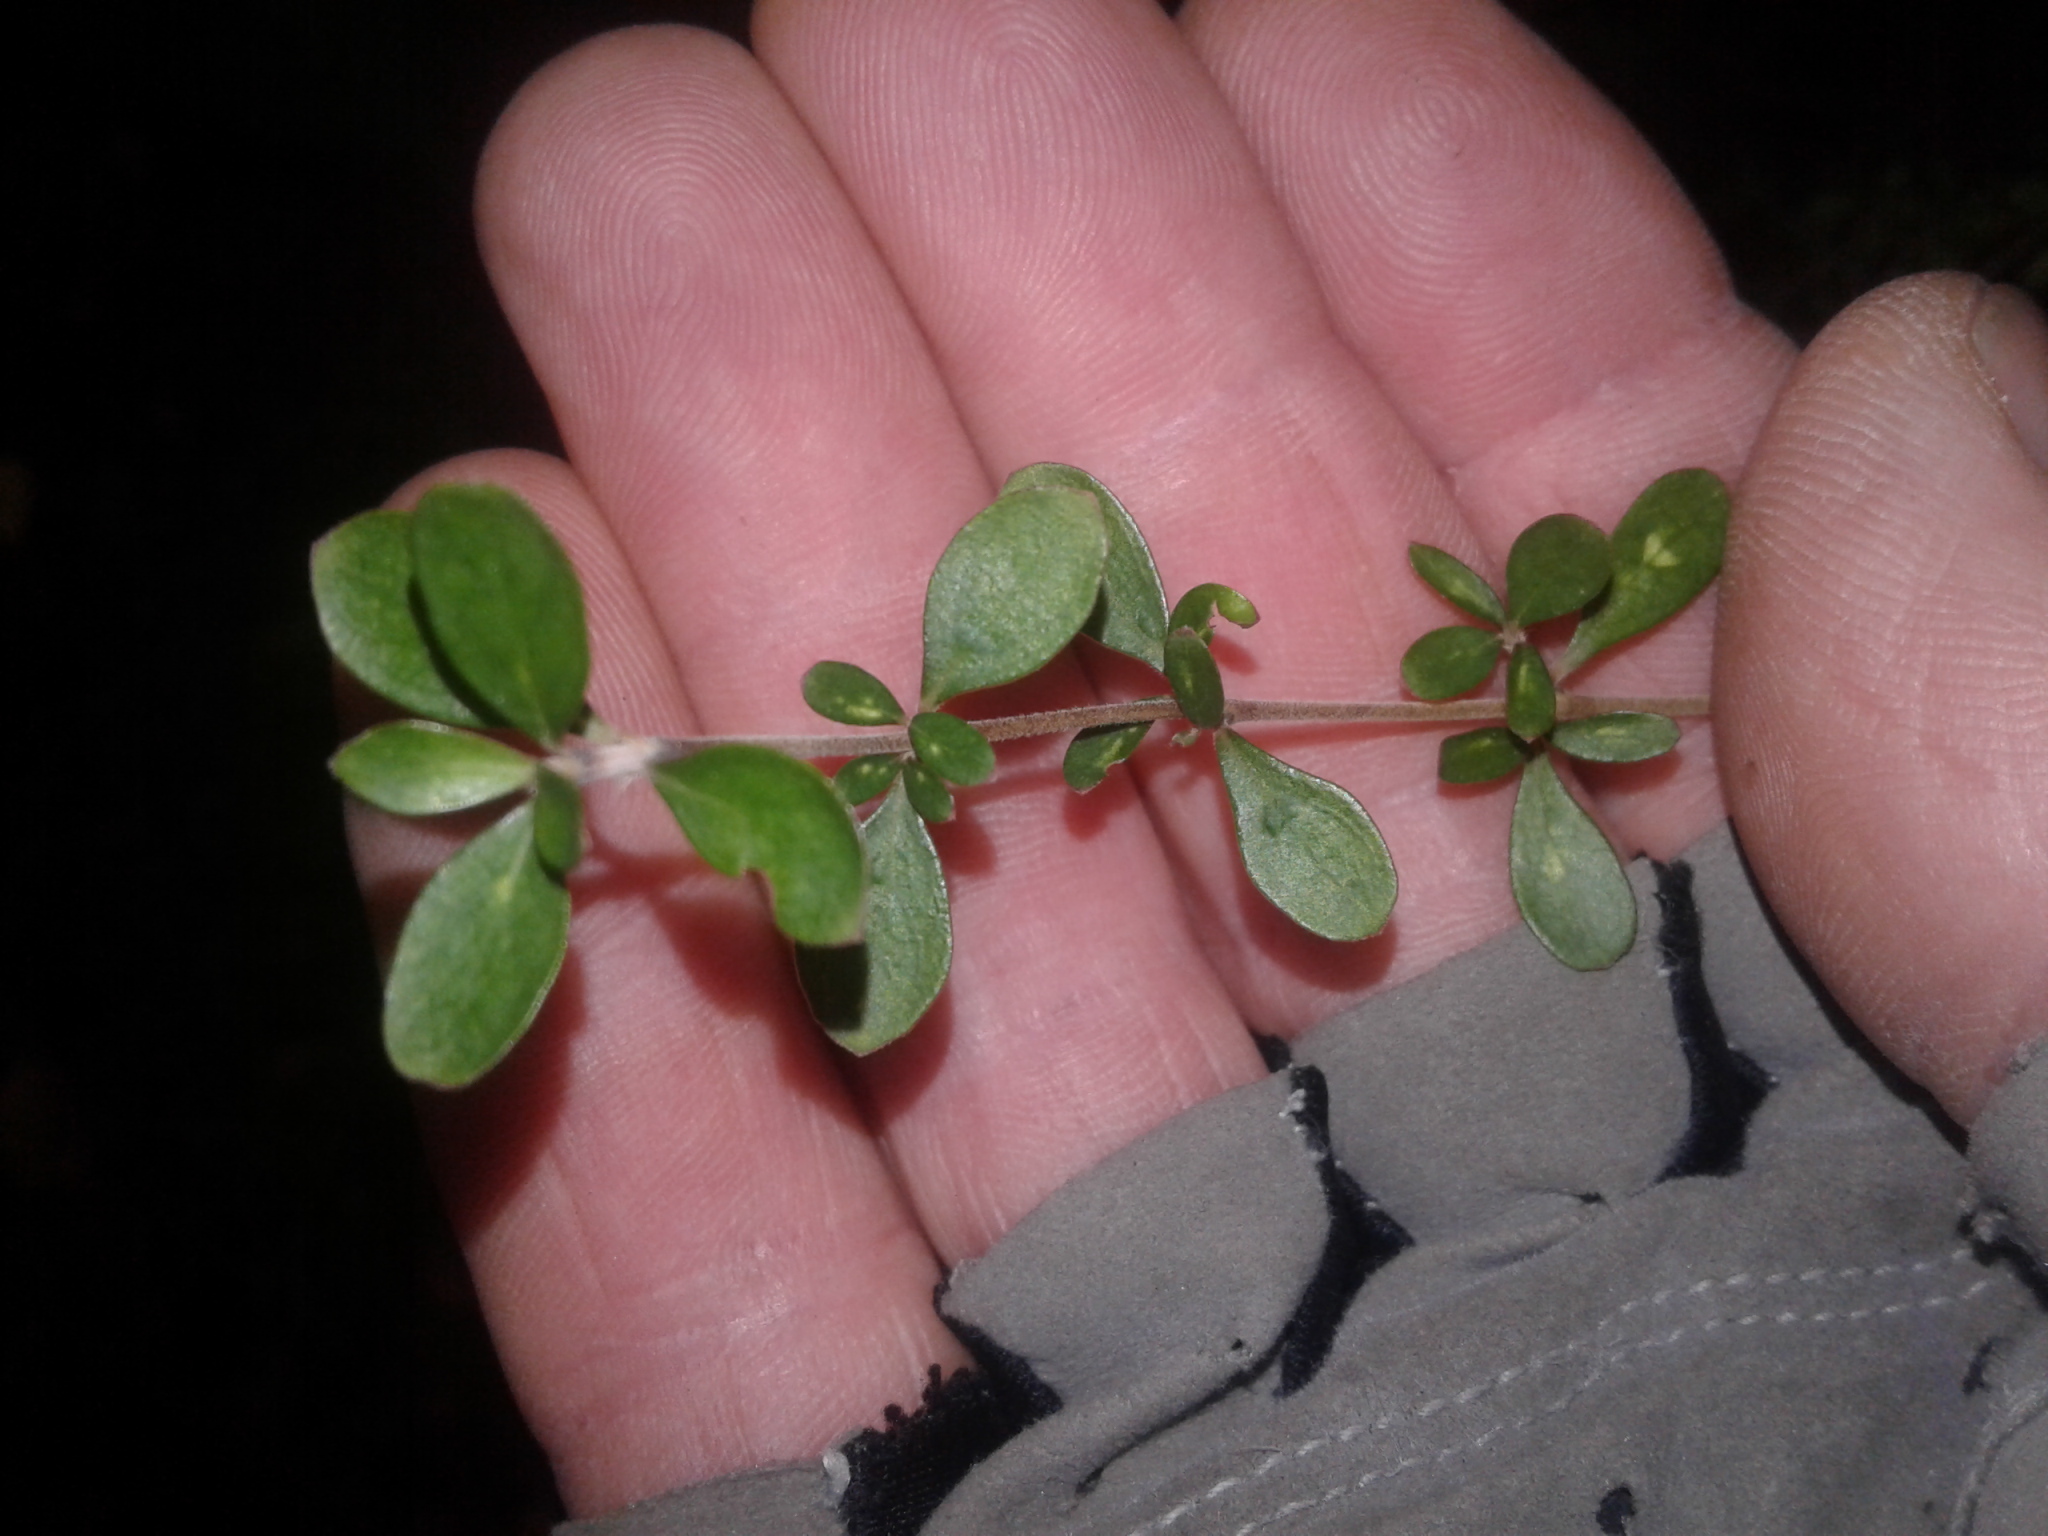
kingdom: Plantae
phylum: Tracheophyta
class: Magnoliopsida
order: Gentianales
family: Rubiaceae
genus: Coprosma
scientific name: Coprosma dumosa
